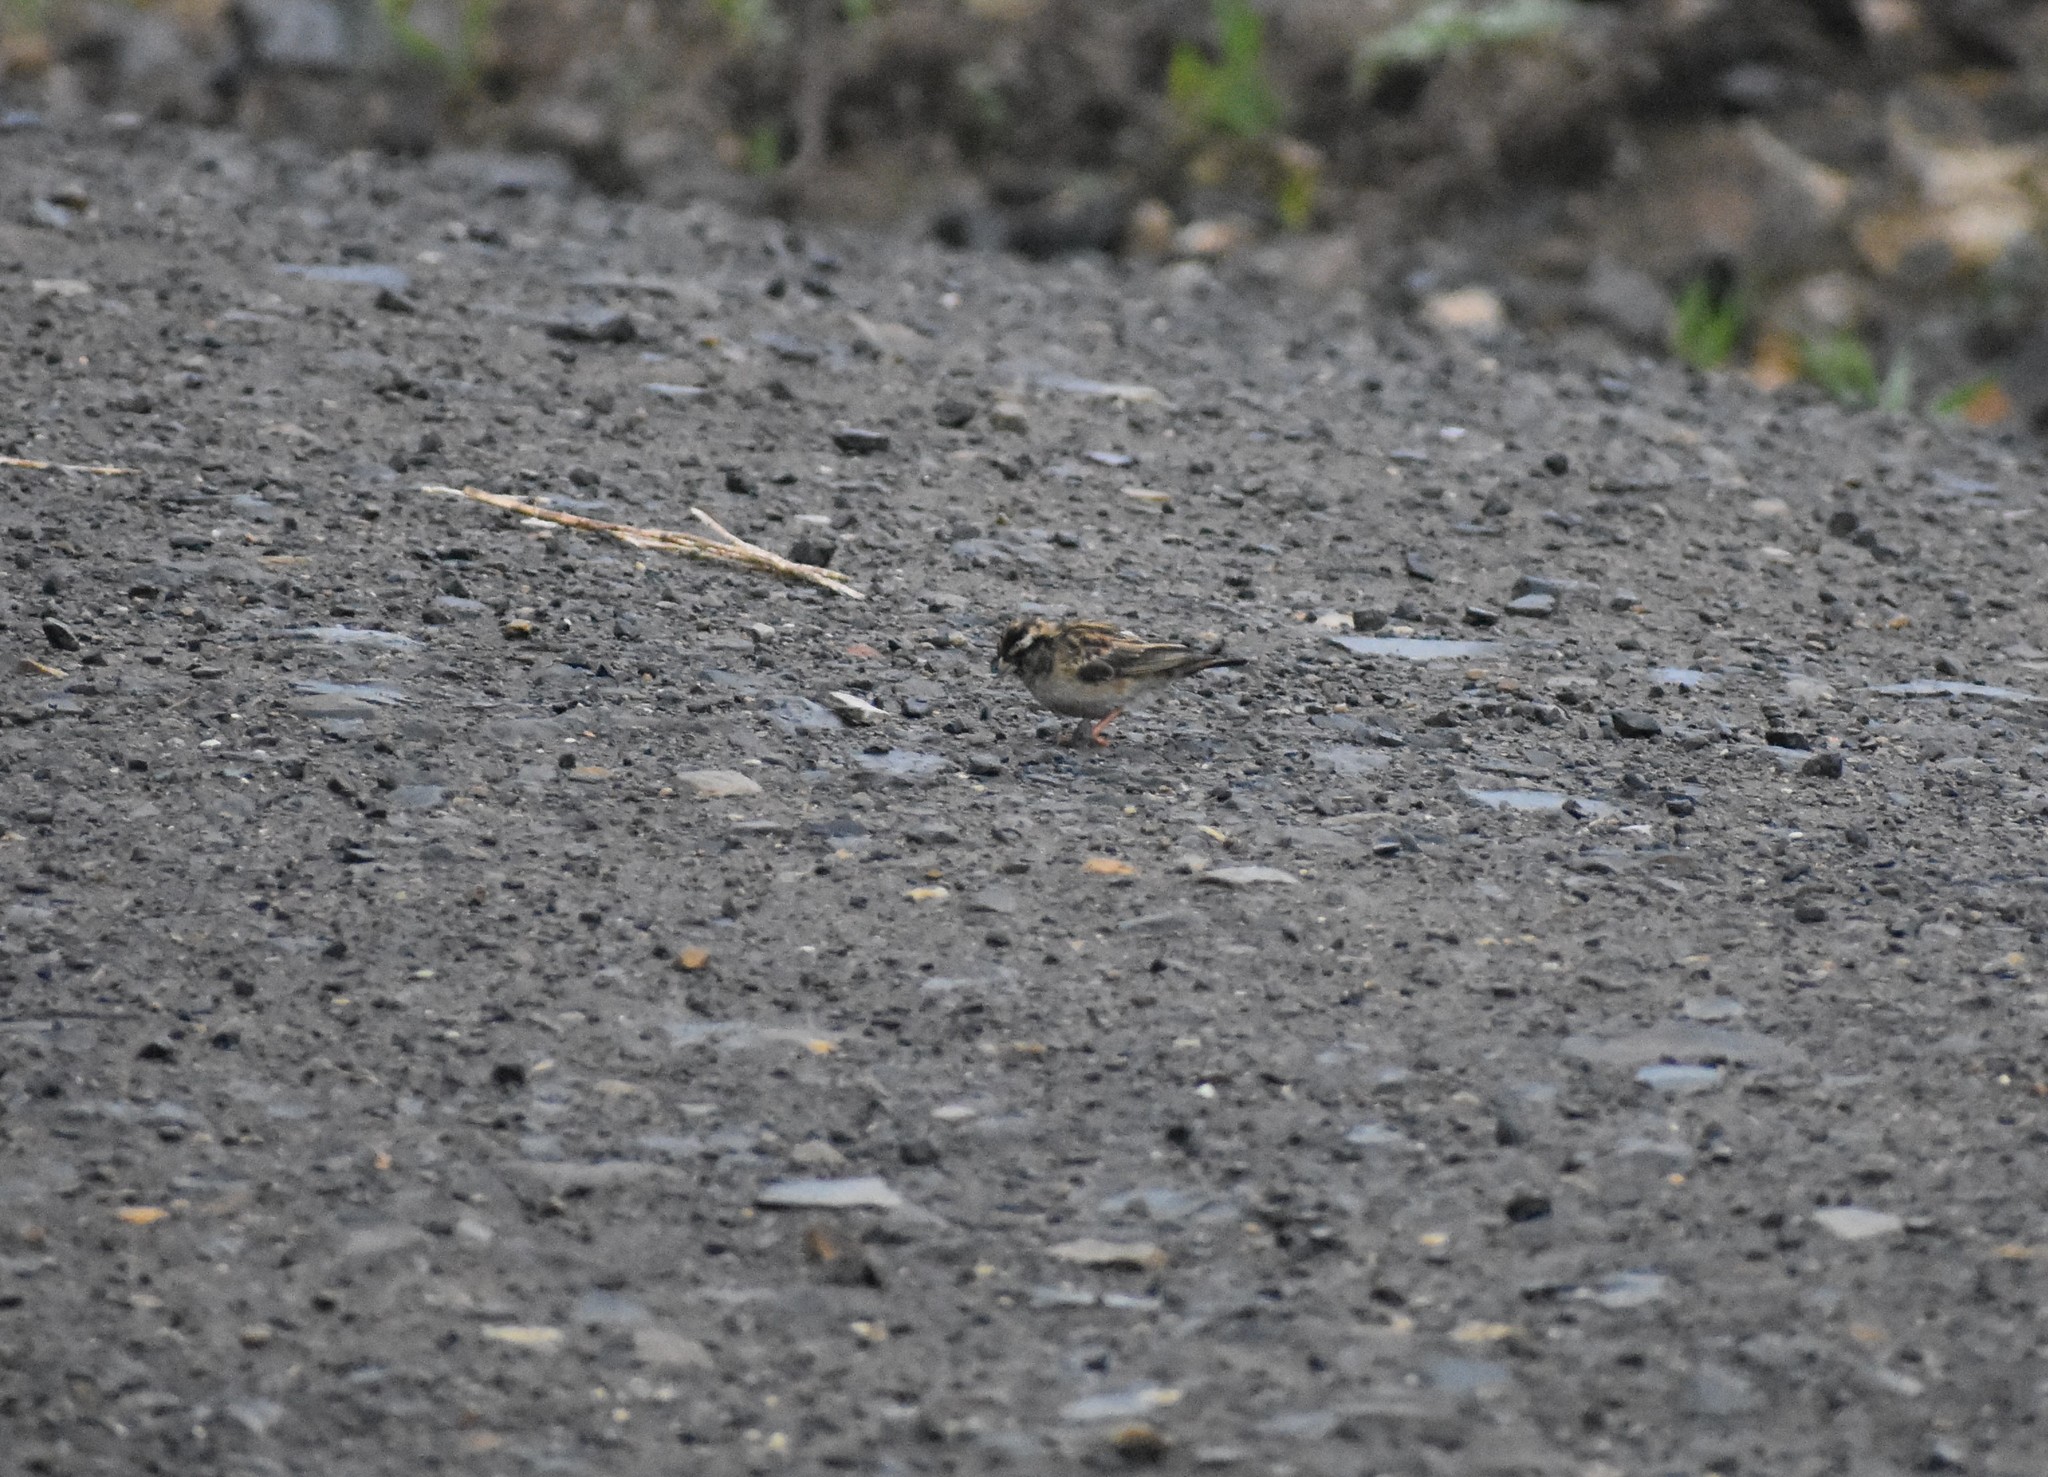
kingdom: Animalia
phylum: Chordata
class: Aves
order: Passeriformes
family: Viduidae
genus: Vidua
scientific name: Vidua funerea
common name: Dusky indigobird
